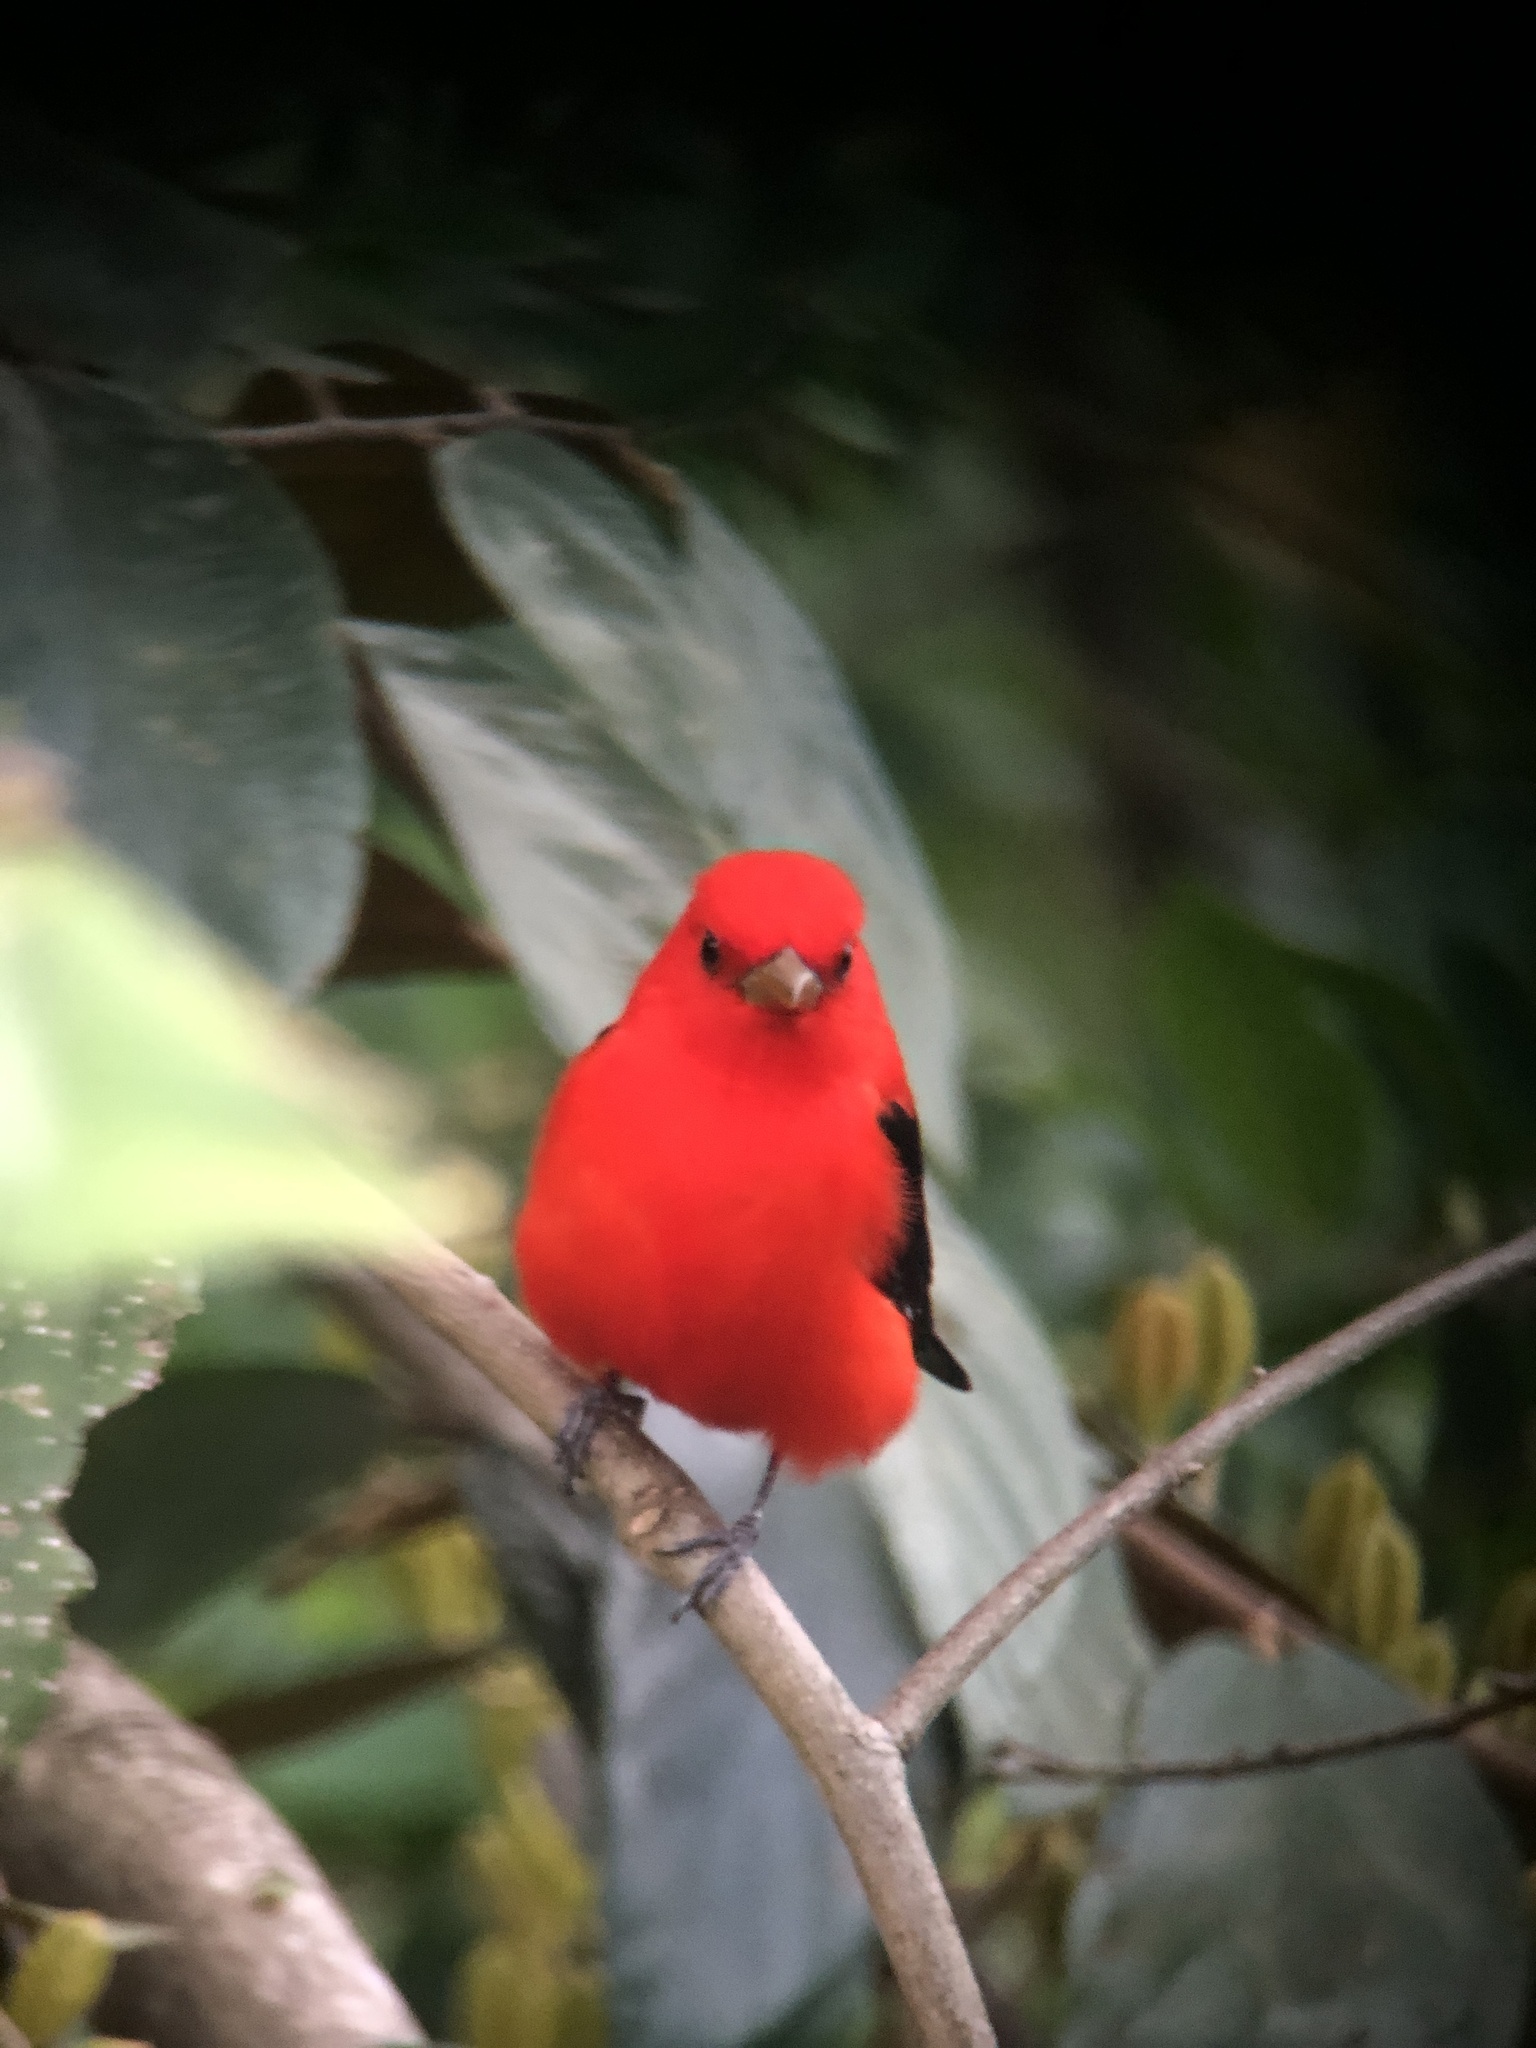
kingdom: Animalia
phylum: Chordata
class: Aves
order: Passeriformes
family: Cardinalidae
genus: Piranga
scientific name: Piranga olivacea
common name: Scarlet tanager
